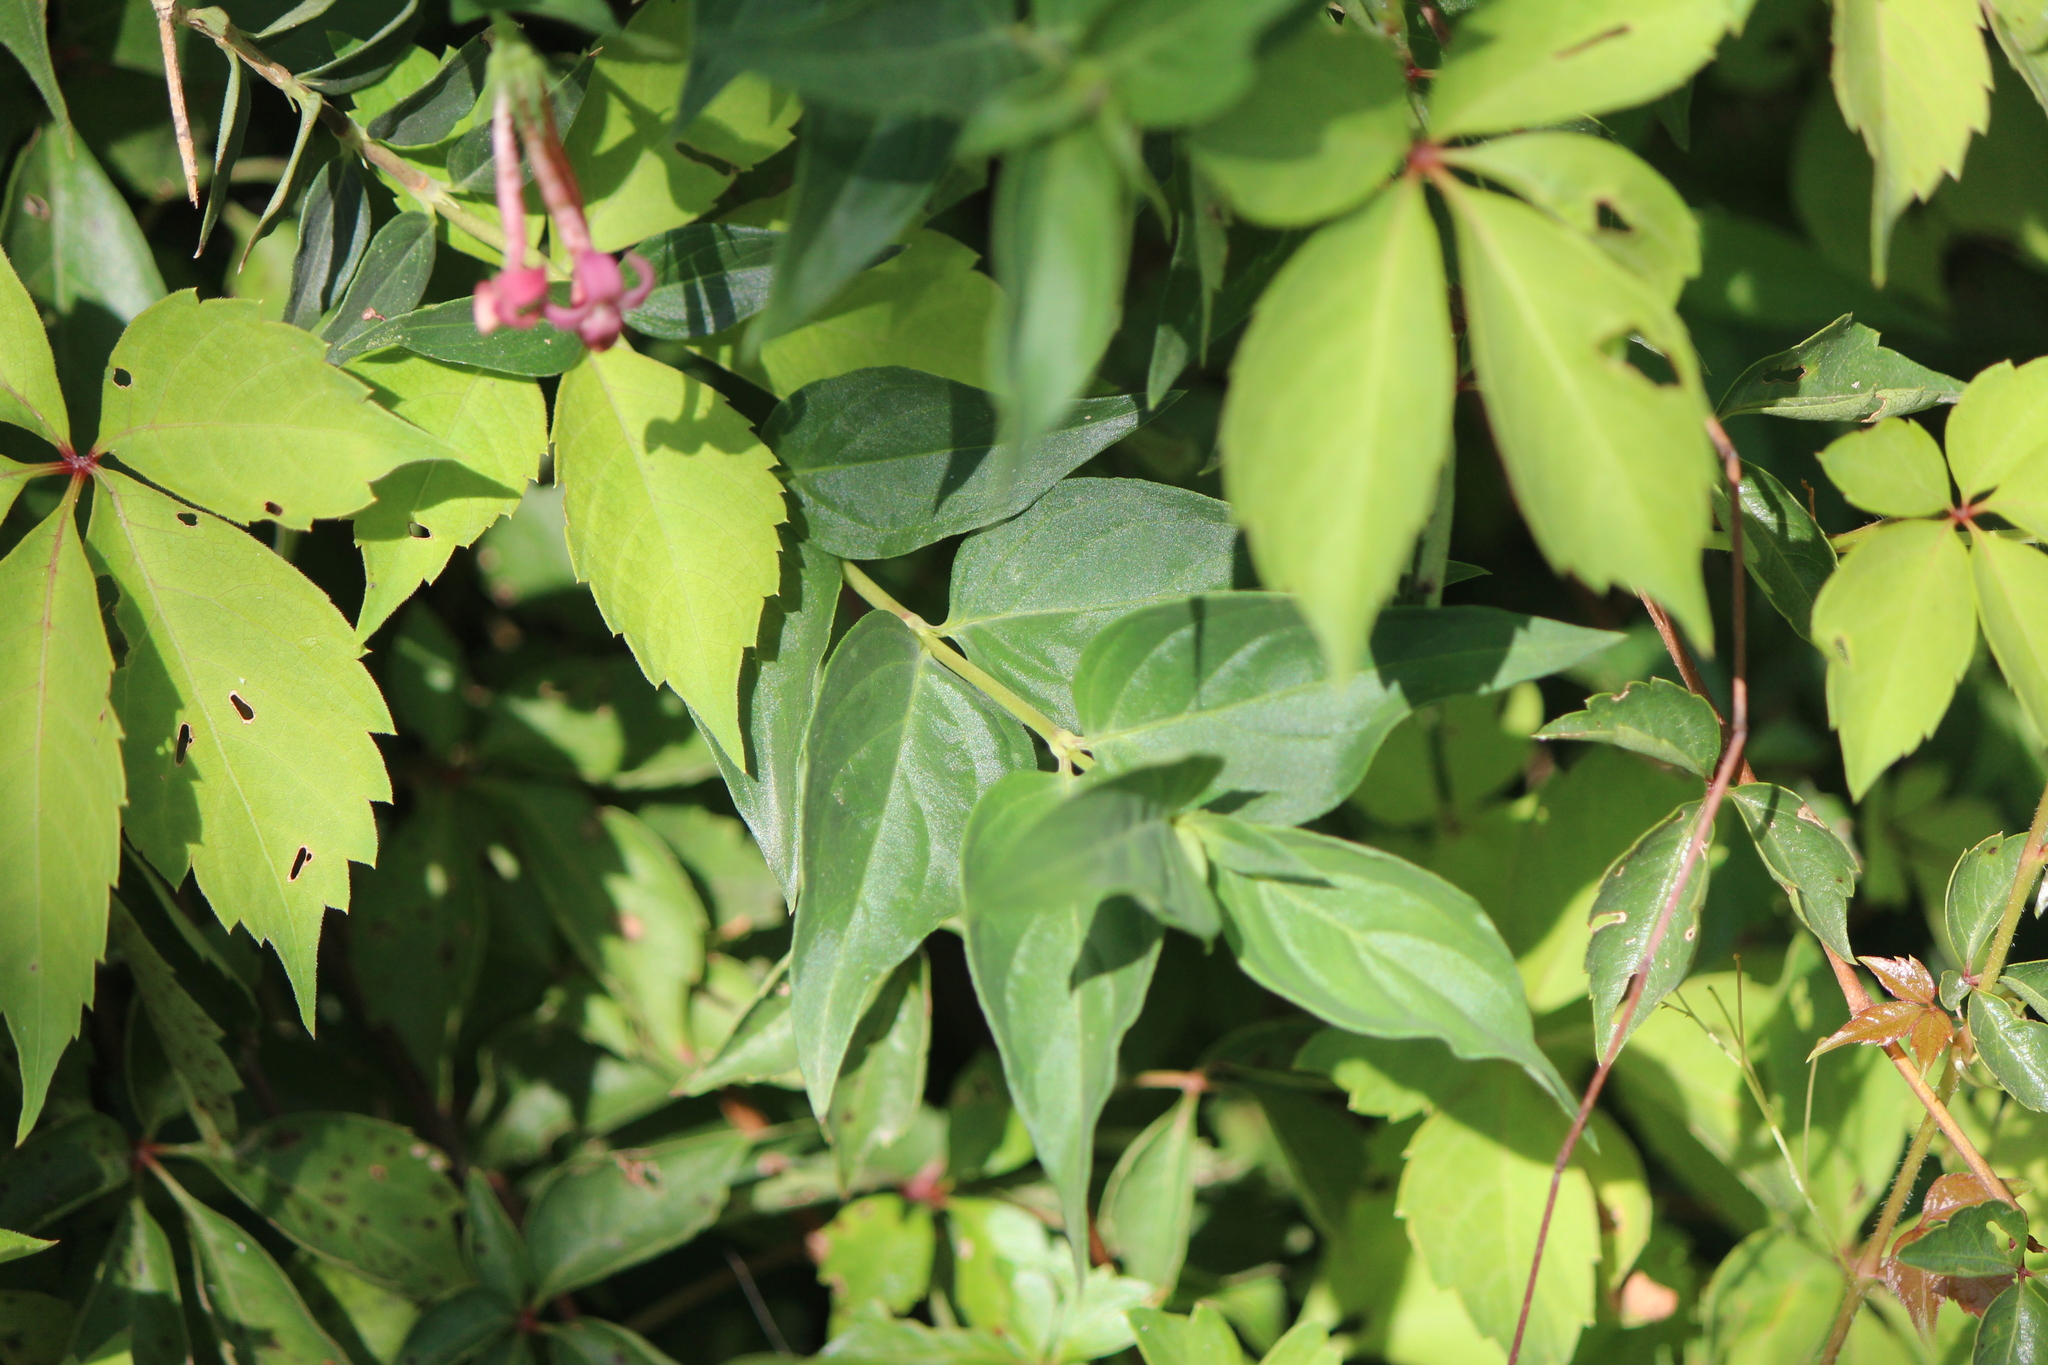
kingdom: Plantae
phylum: Tracheophyta
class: Magnoliopsida
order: Gentianales
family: Rubiaceae
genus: Bouvardia
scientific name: Bouvardia laevis
